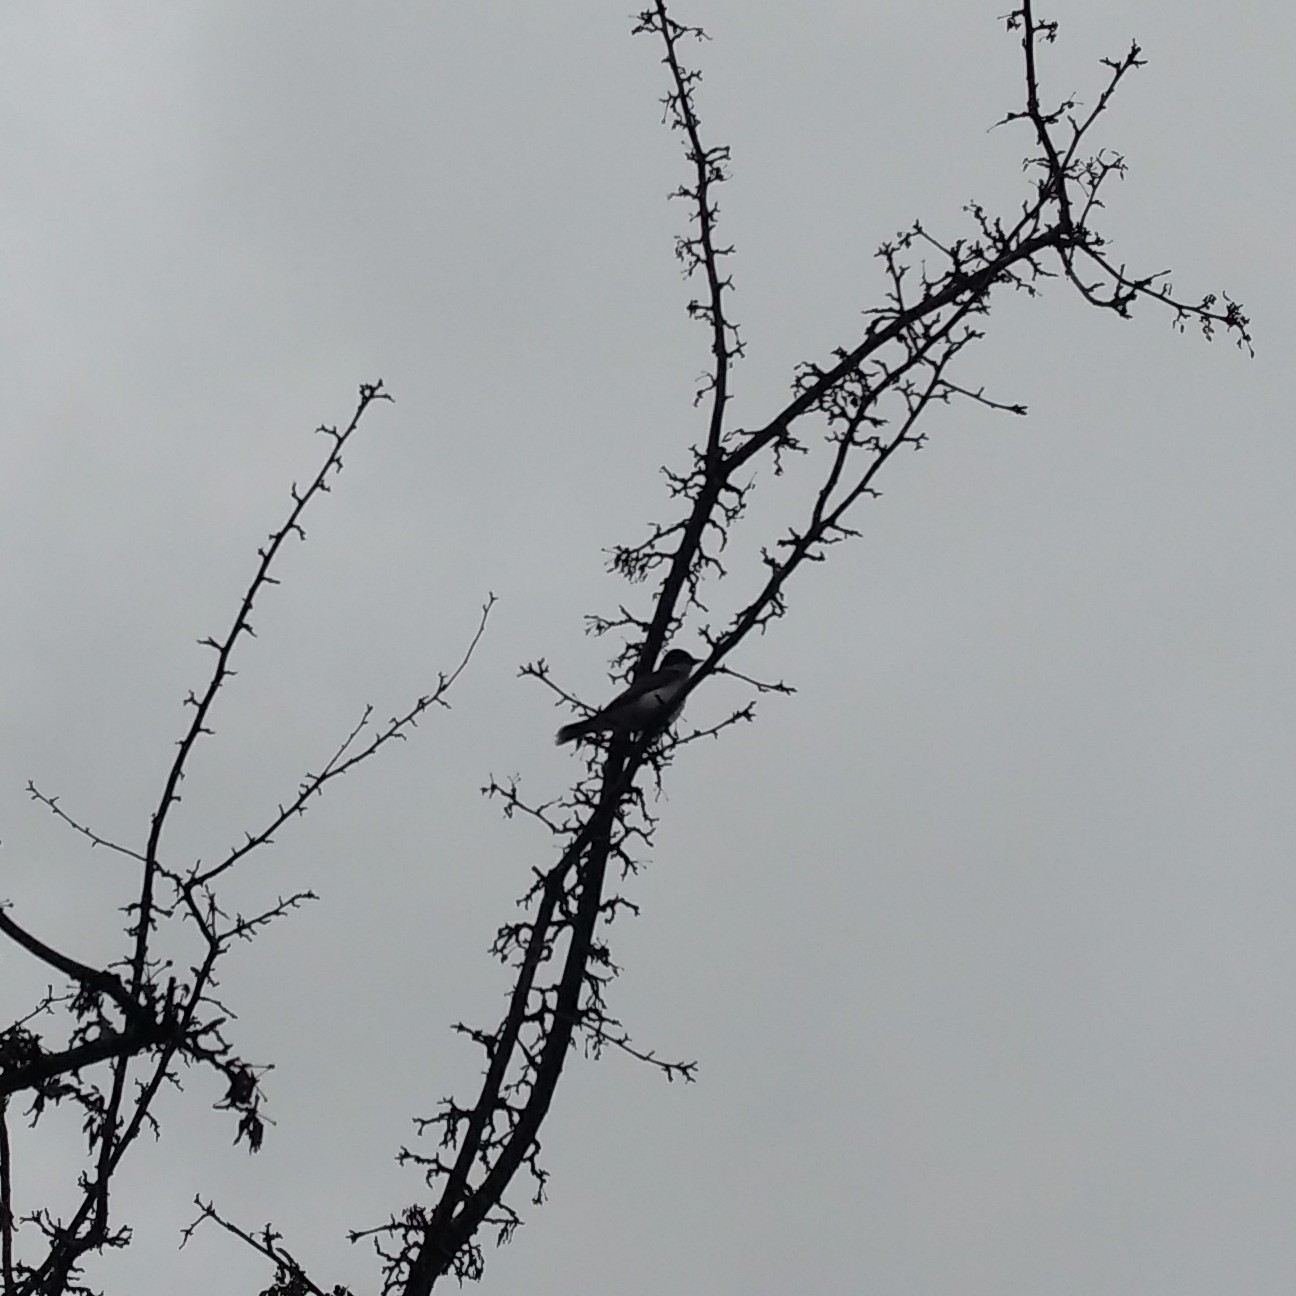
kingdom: Animalia
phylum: Chordata
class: Aves
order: Passeriformes
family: Tyrannidae
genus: Tyrannus
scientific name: Tyrannus tyrannus
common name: Eastern kingbird
